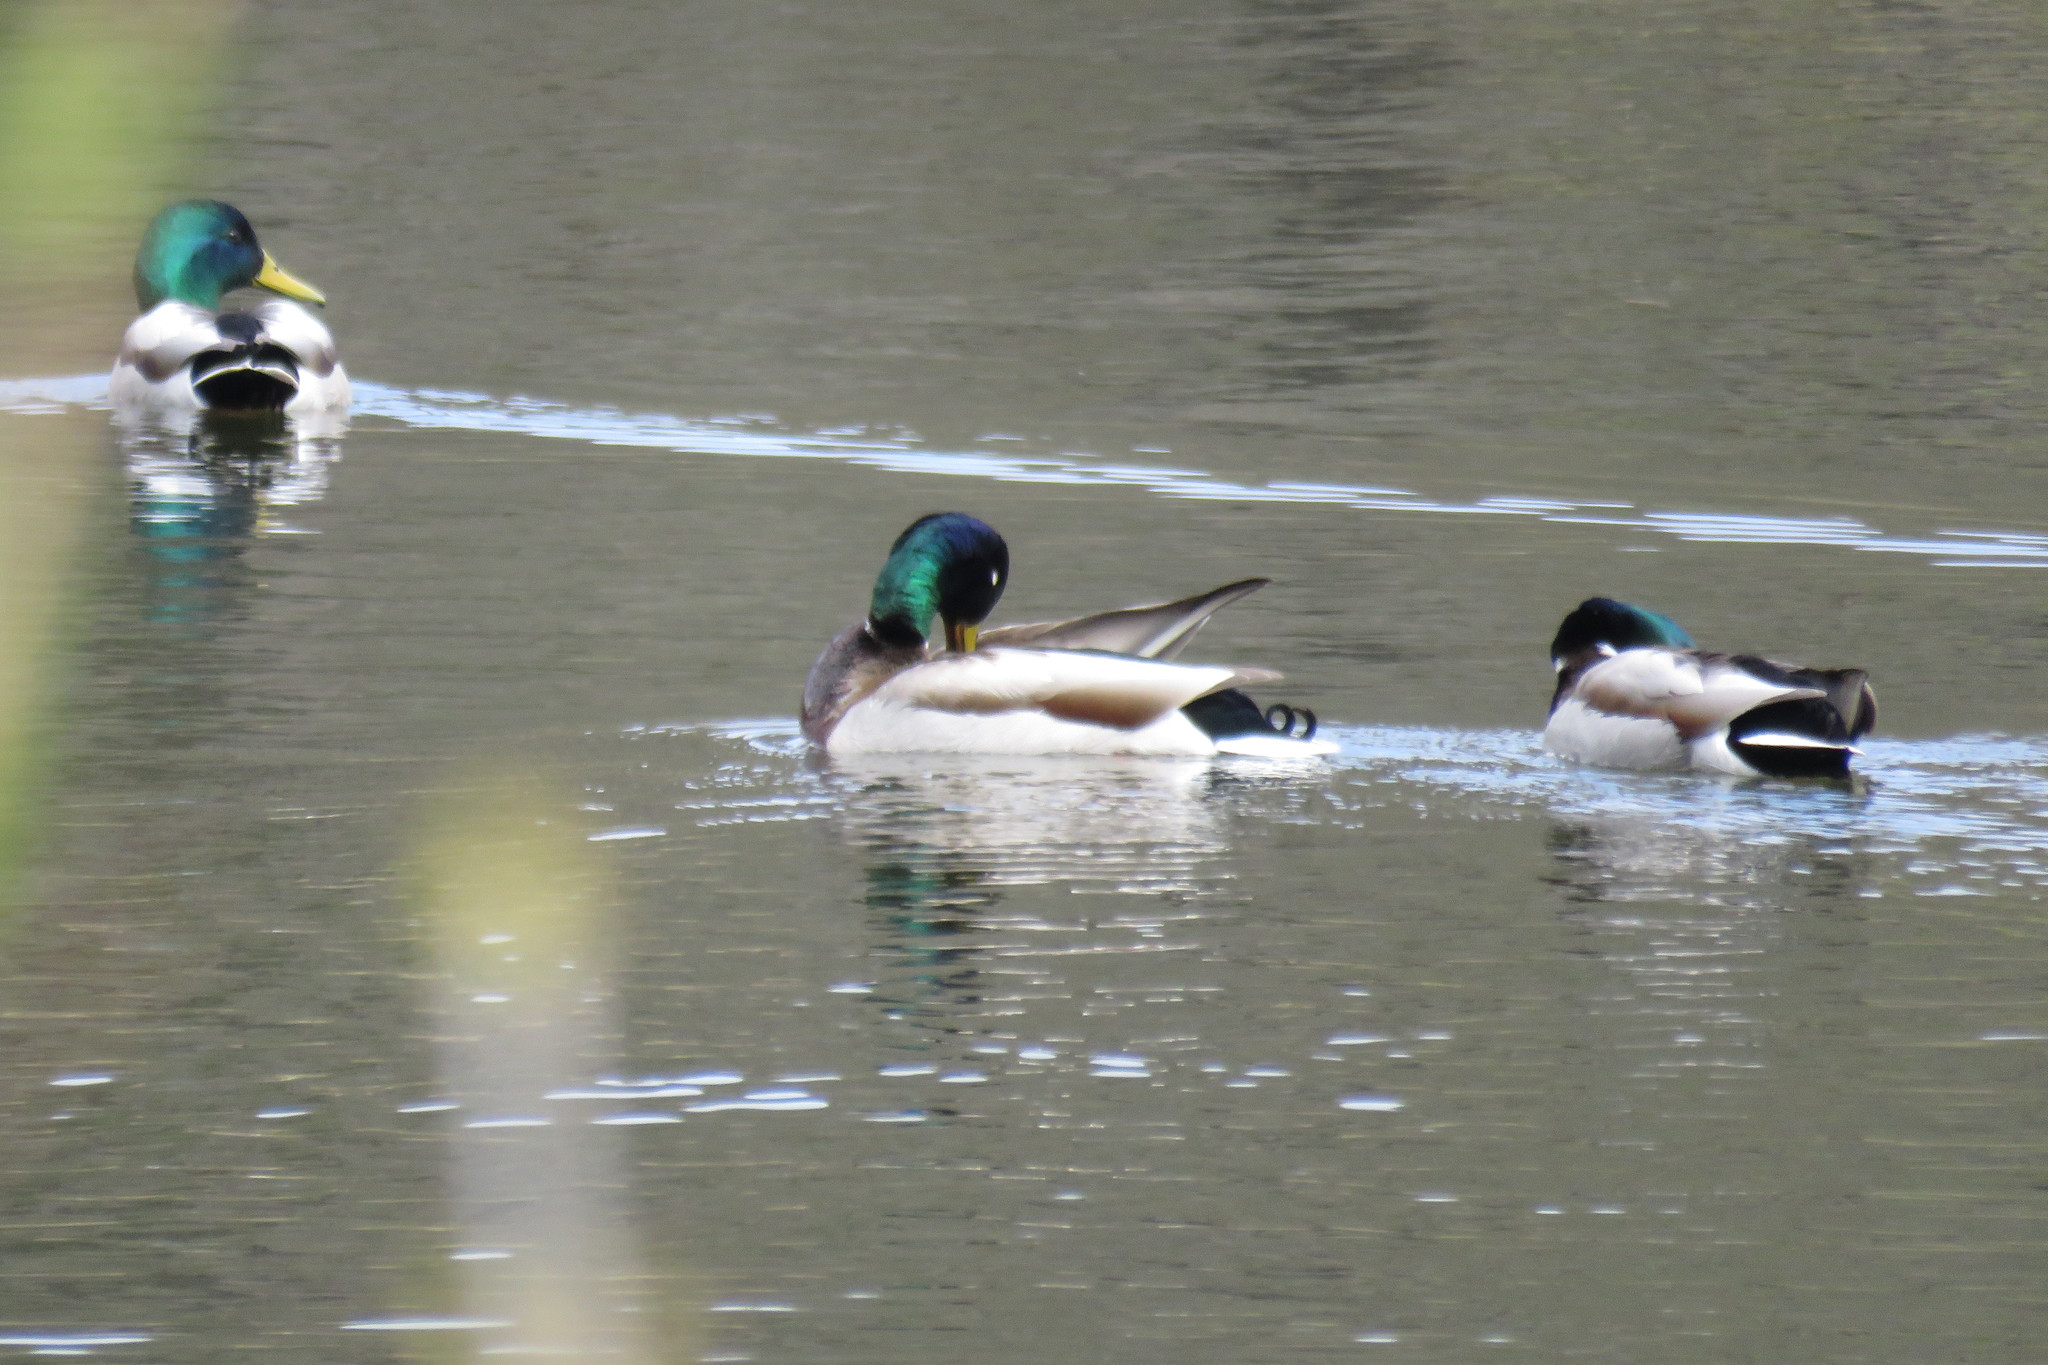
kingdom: Animalia
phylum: Chordata
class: Aves
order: Anseriformes
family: Anatidae
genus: Anas
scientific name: Anas platyrhynchos
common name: Mallard
